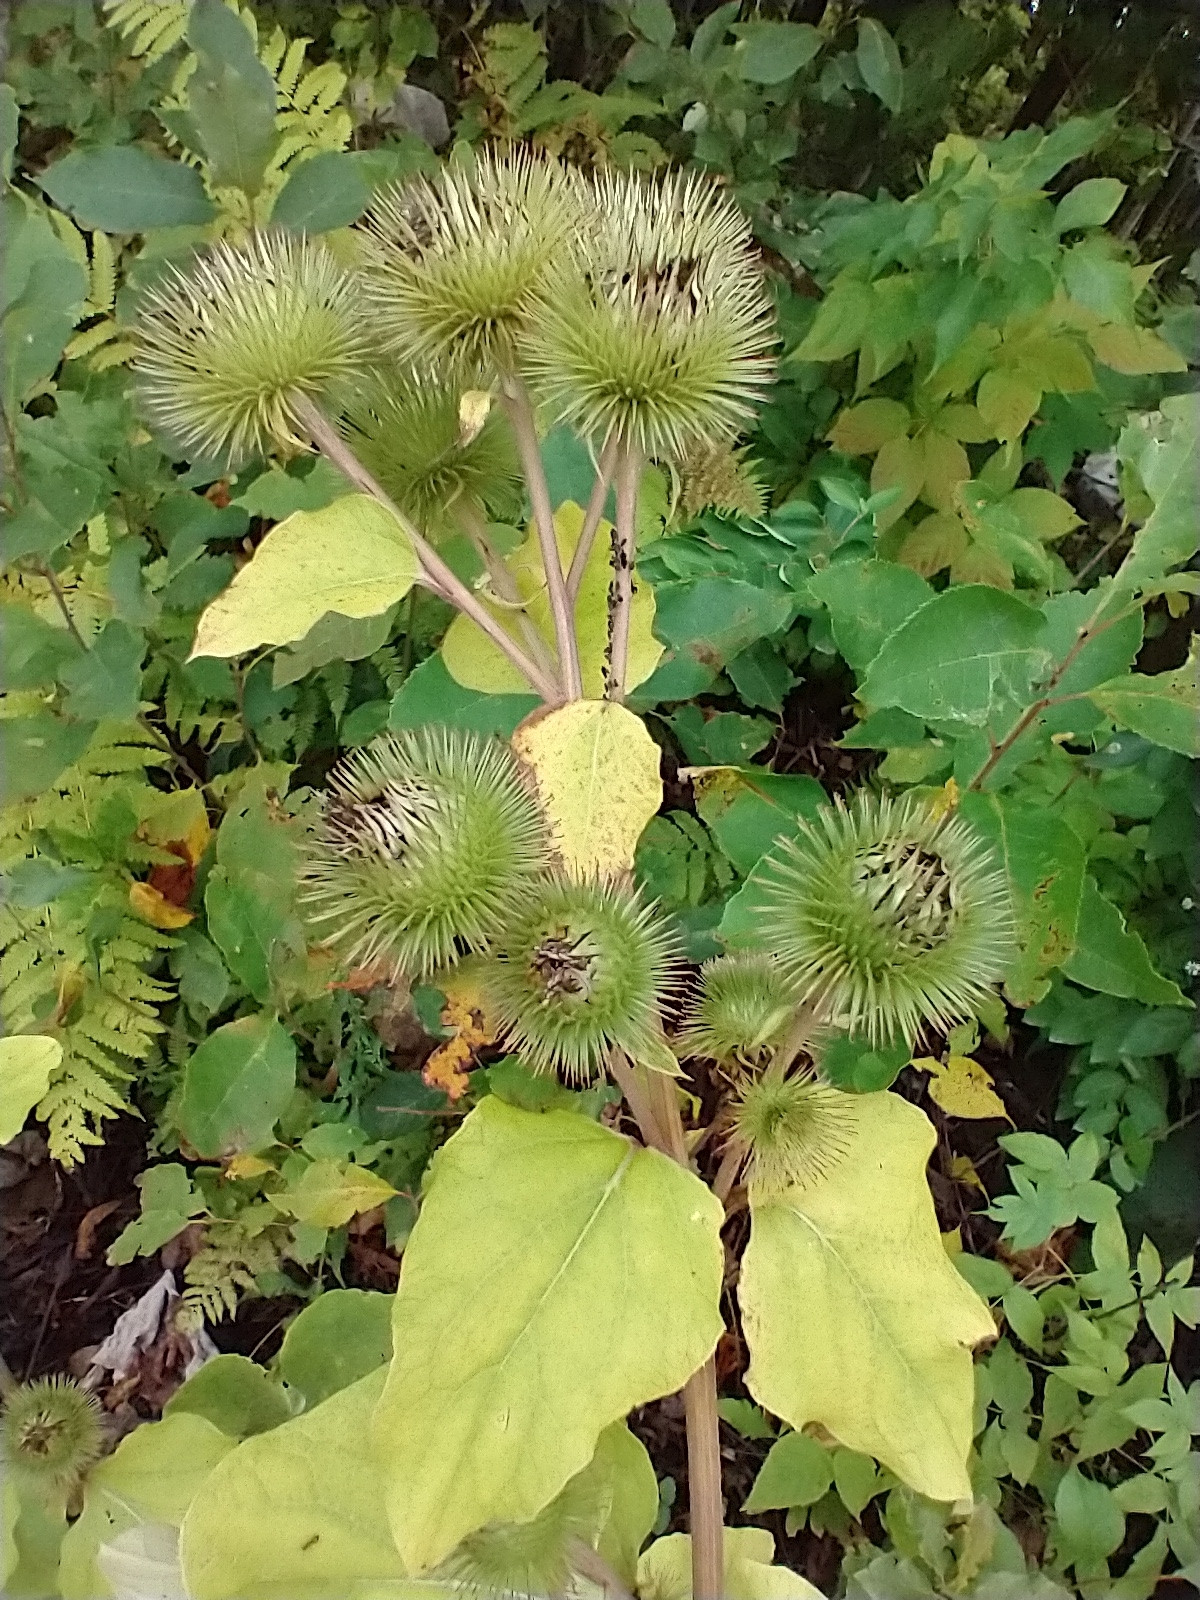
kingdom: Plantae
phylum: Tracheophyta
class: Magnoliopsida
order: Asterales
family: Asteraceae
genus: Arctium
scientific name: Arctium lappa
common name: Greater burdock
